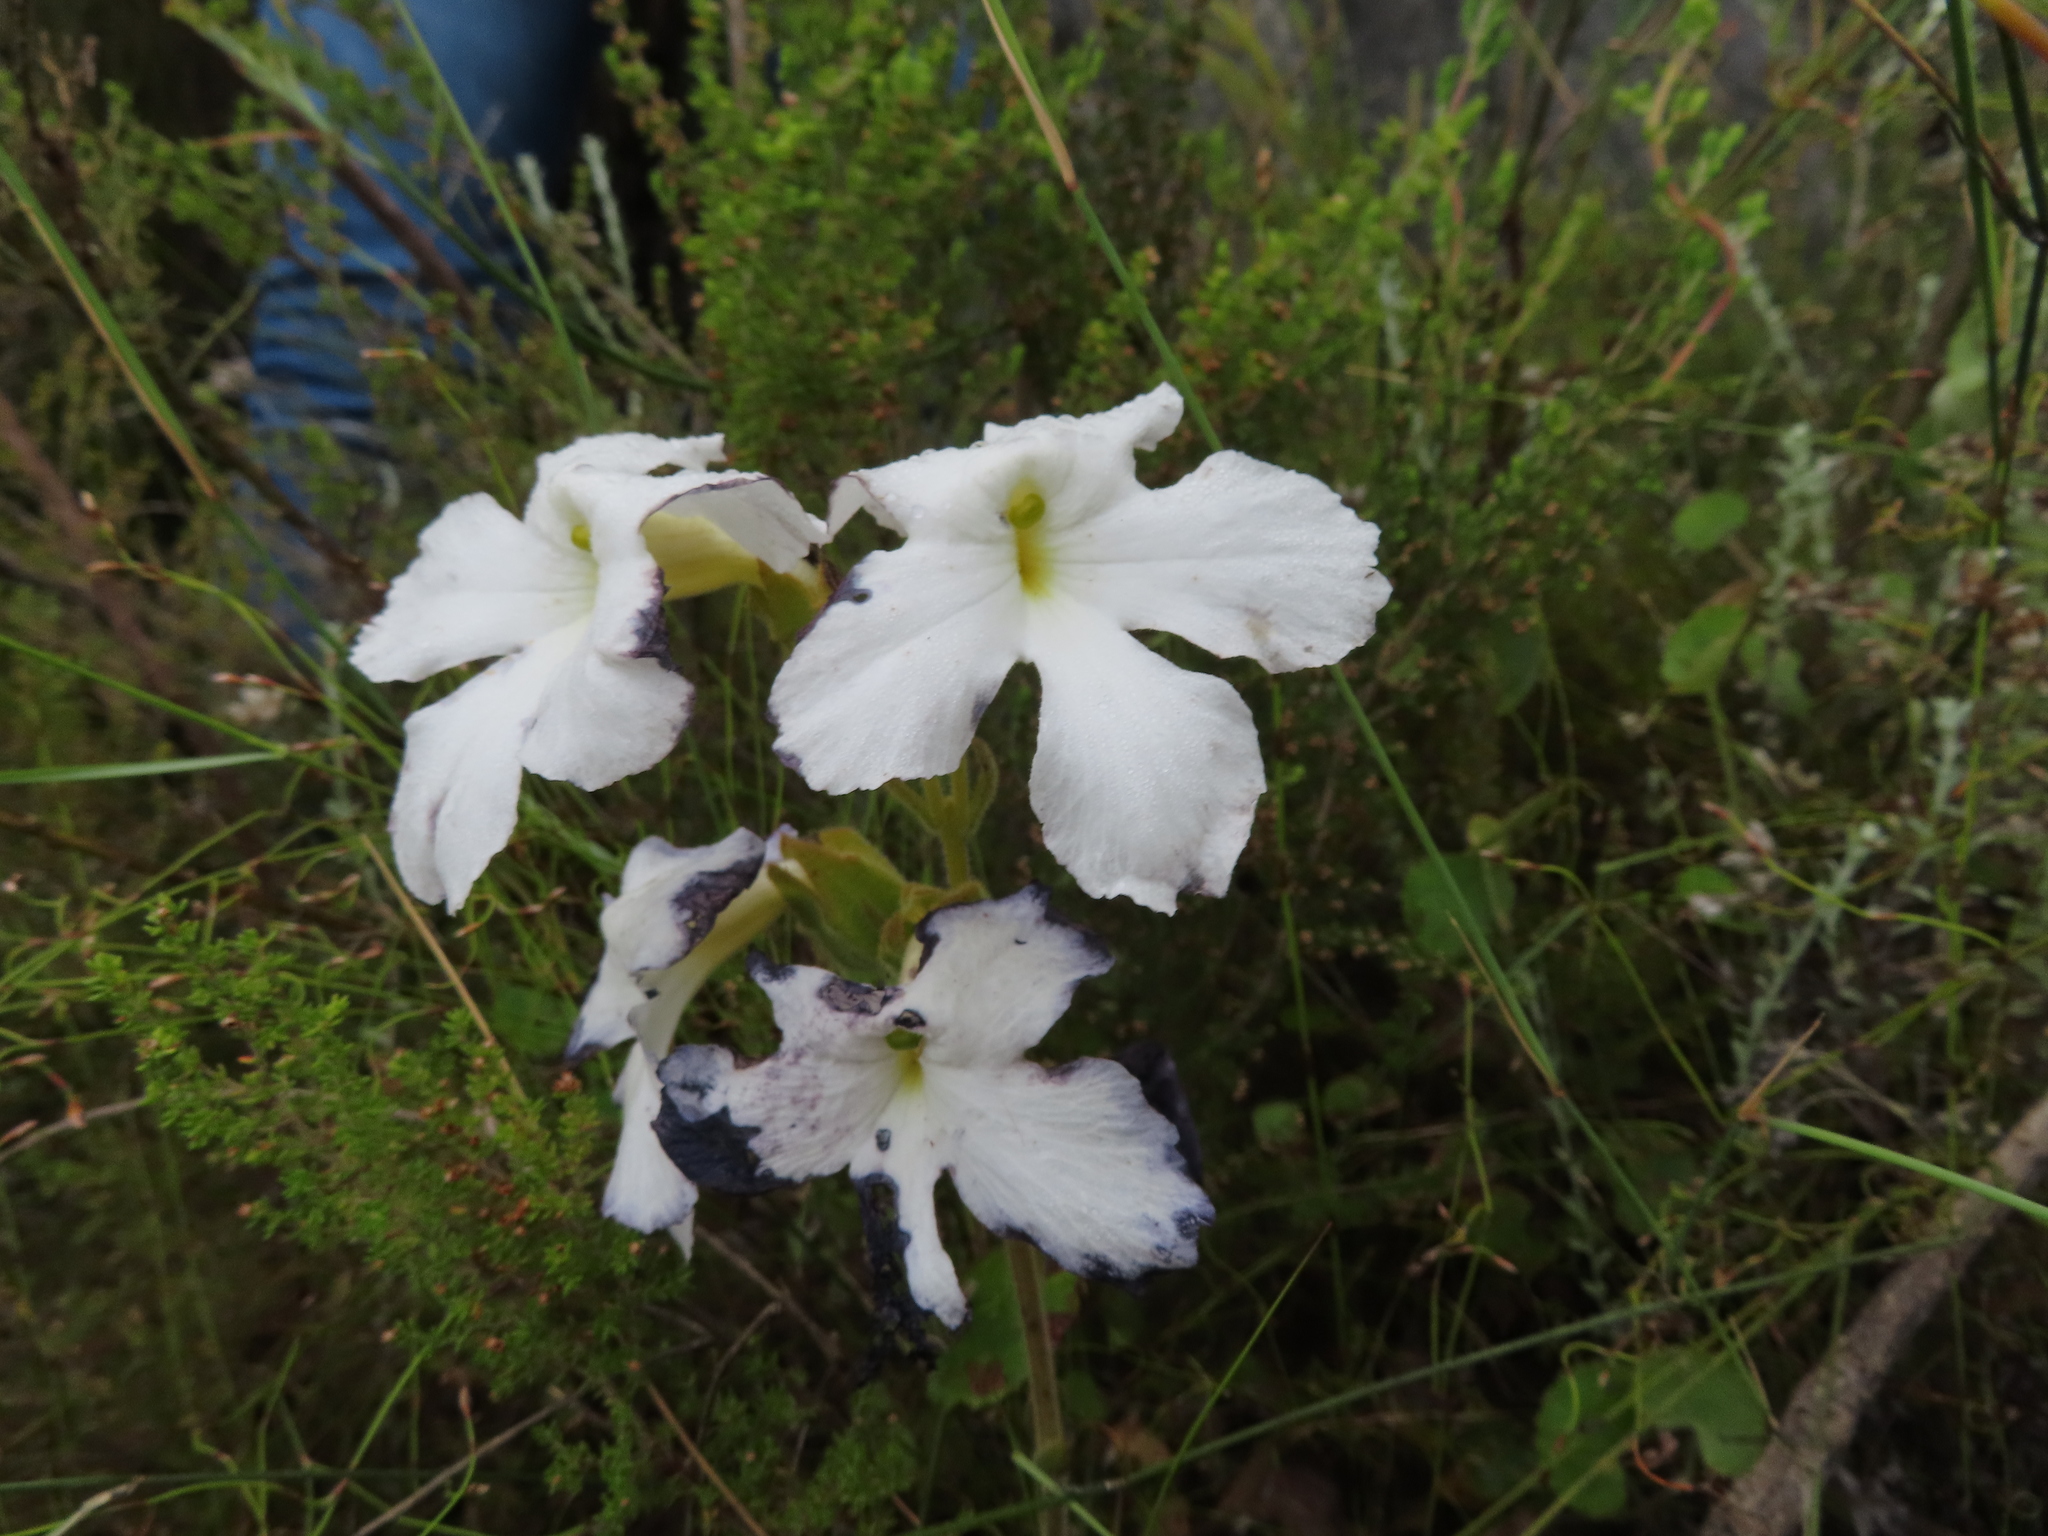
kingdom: Plantae
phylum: Tracheophyta
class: Magnoliopsida
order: Lamiales
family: Orobanchaceae
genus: Harveya
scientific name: Harveya capensis
